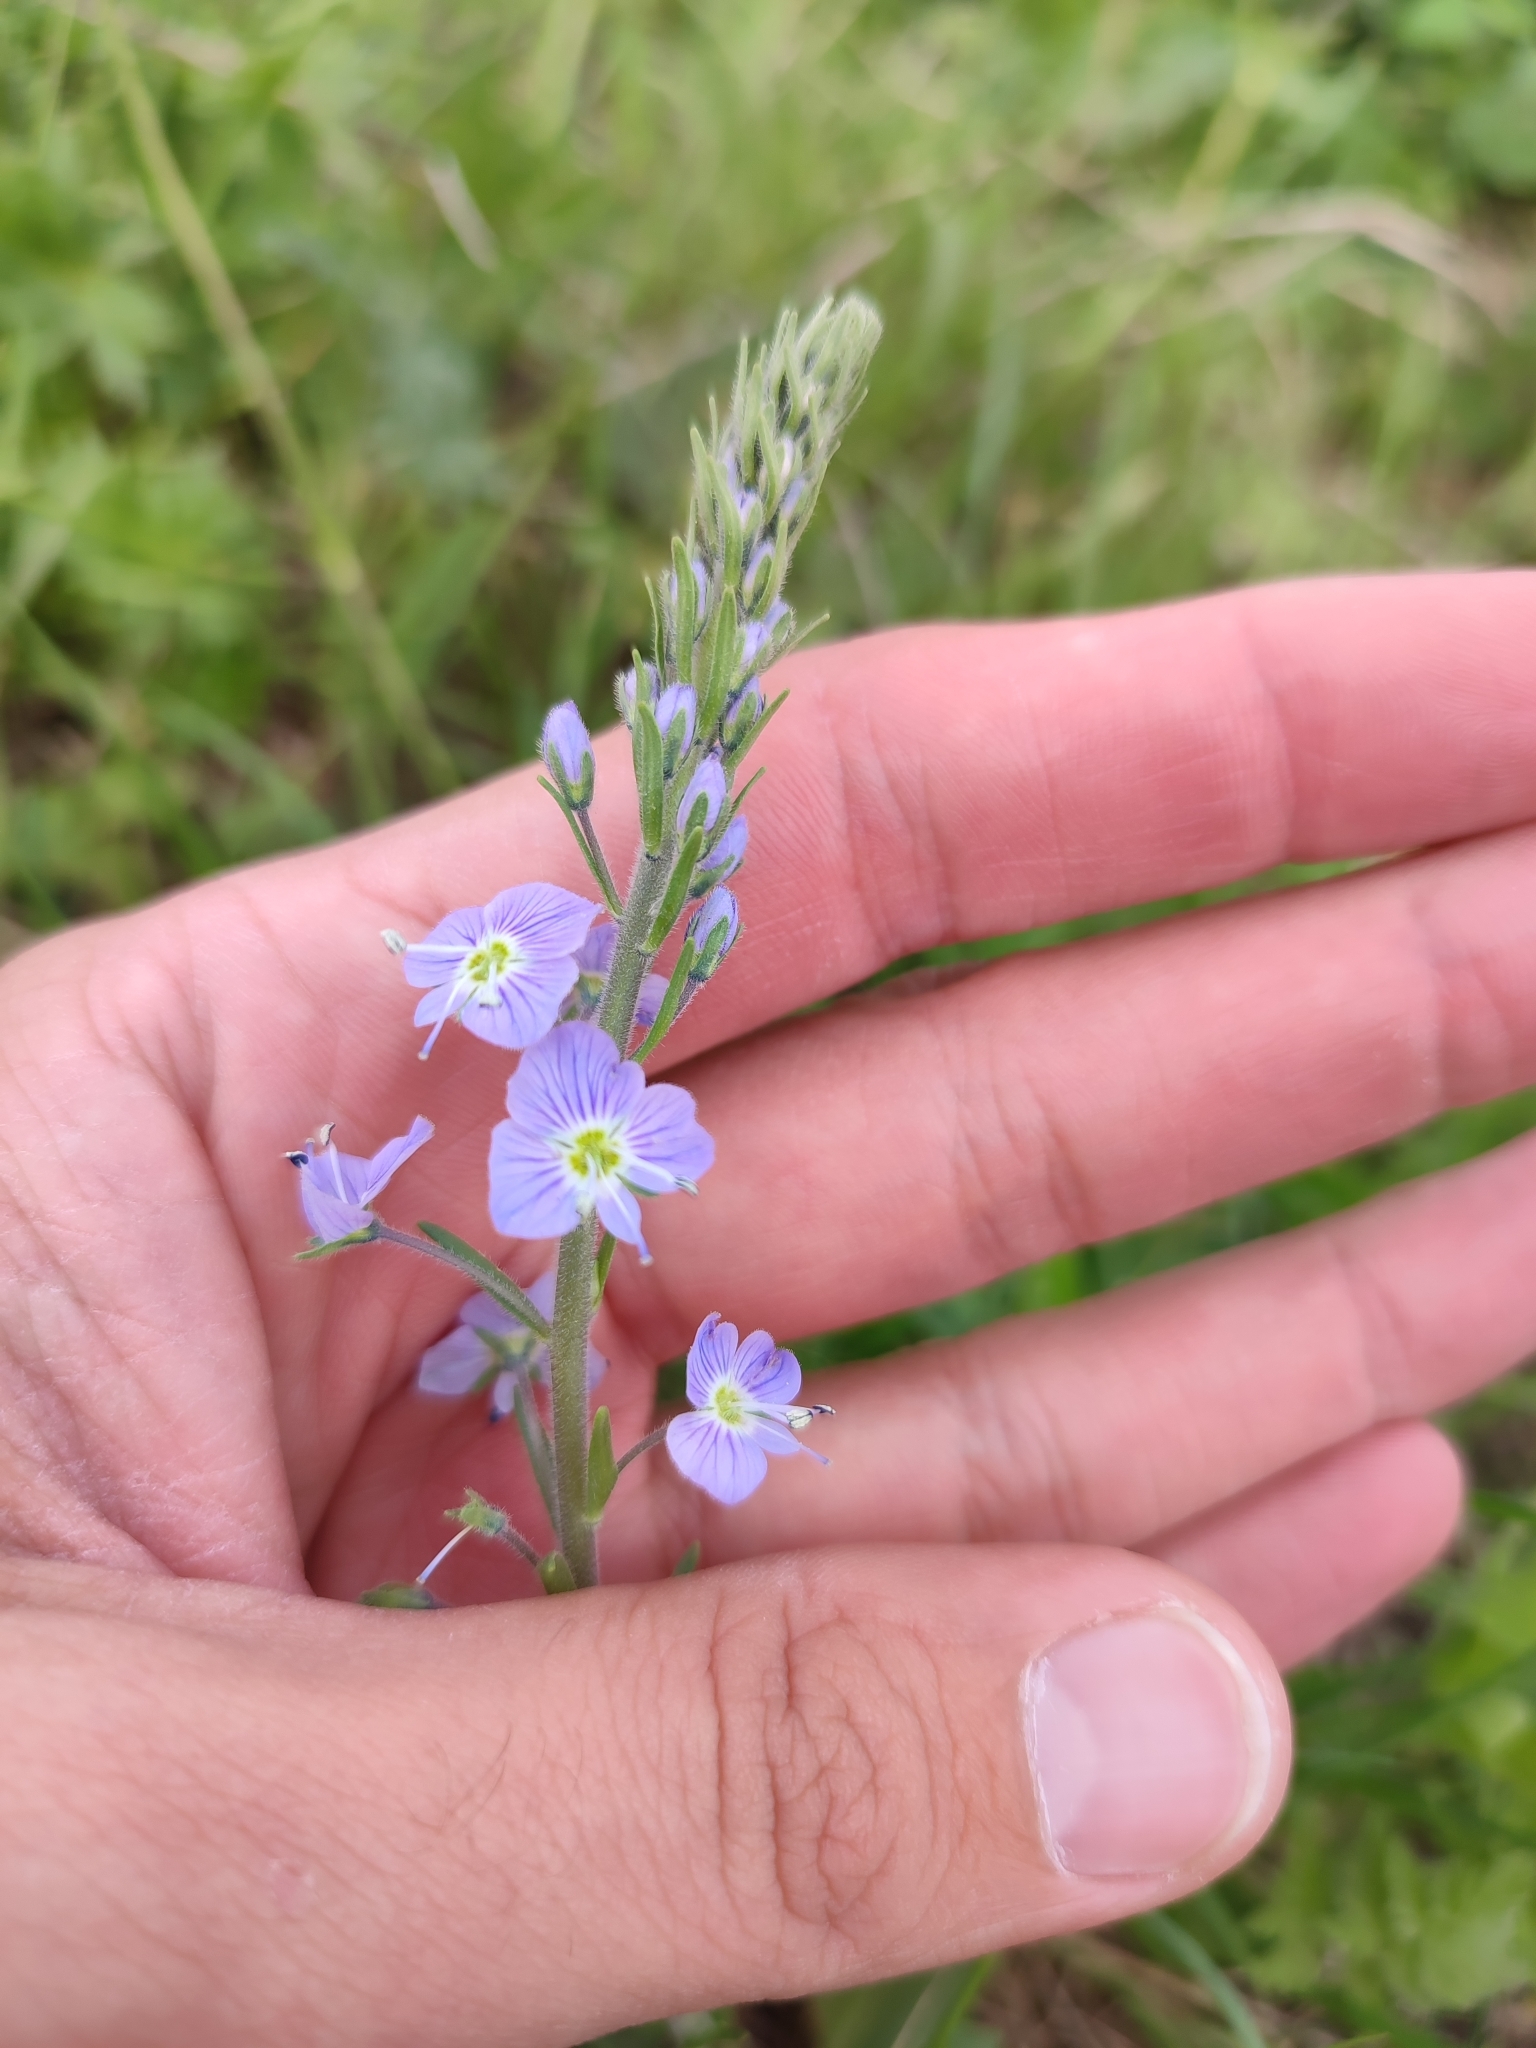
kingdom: Plantae
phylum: Tracheophyta
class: Magnoliopsida
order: Lamiales
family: Plantaginaceae
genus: Veronica
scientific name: Veronica gentianoides
